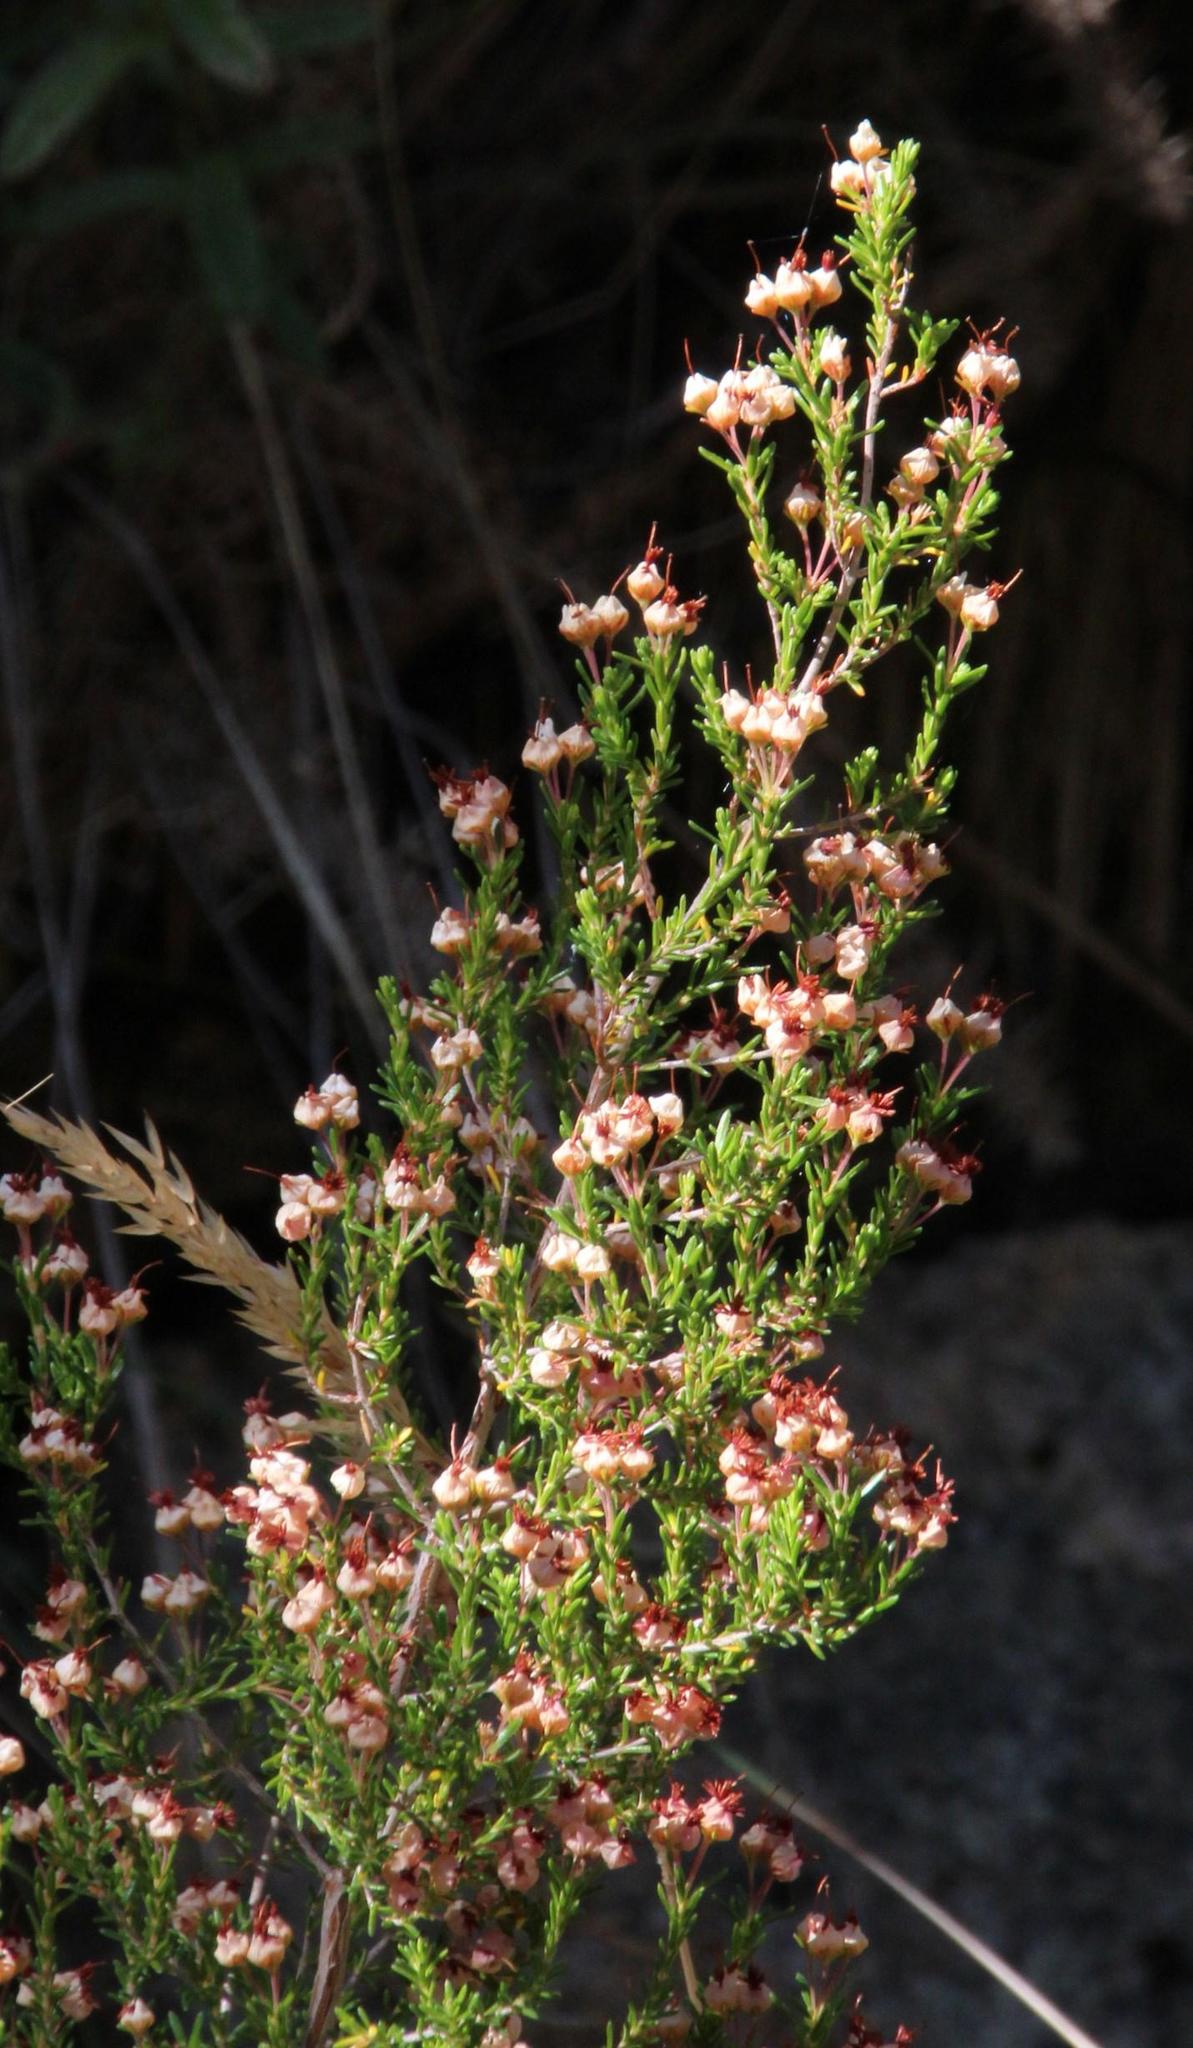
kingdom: Plantae
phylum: Tracheophyta
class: Magnoliopsida
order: Ericales
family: Ericaceae
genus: Erica
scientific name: Erica umbellata
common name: Dwarf spanish heath
